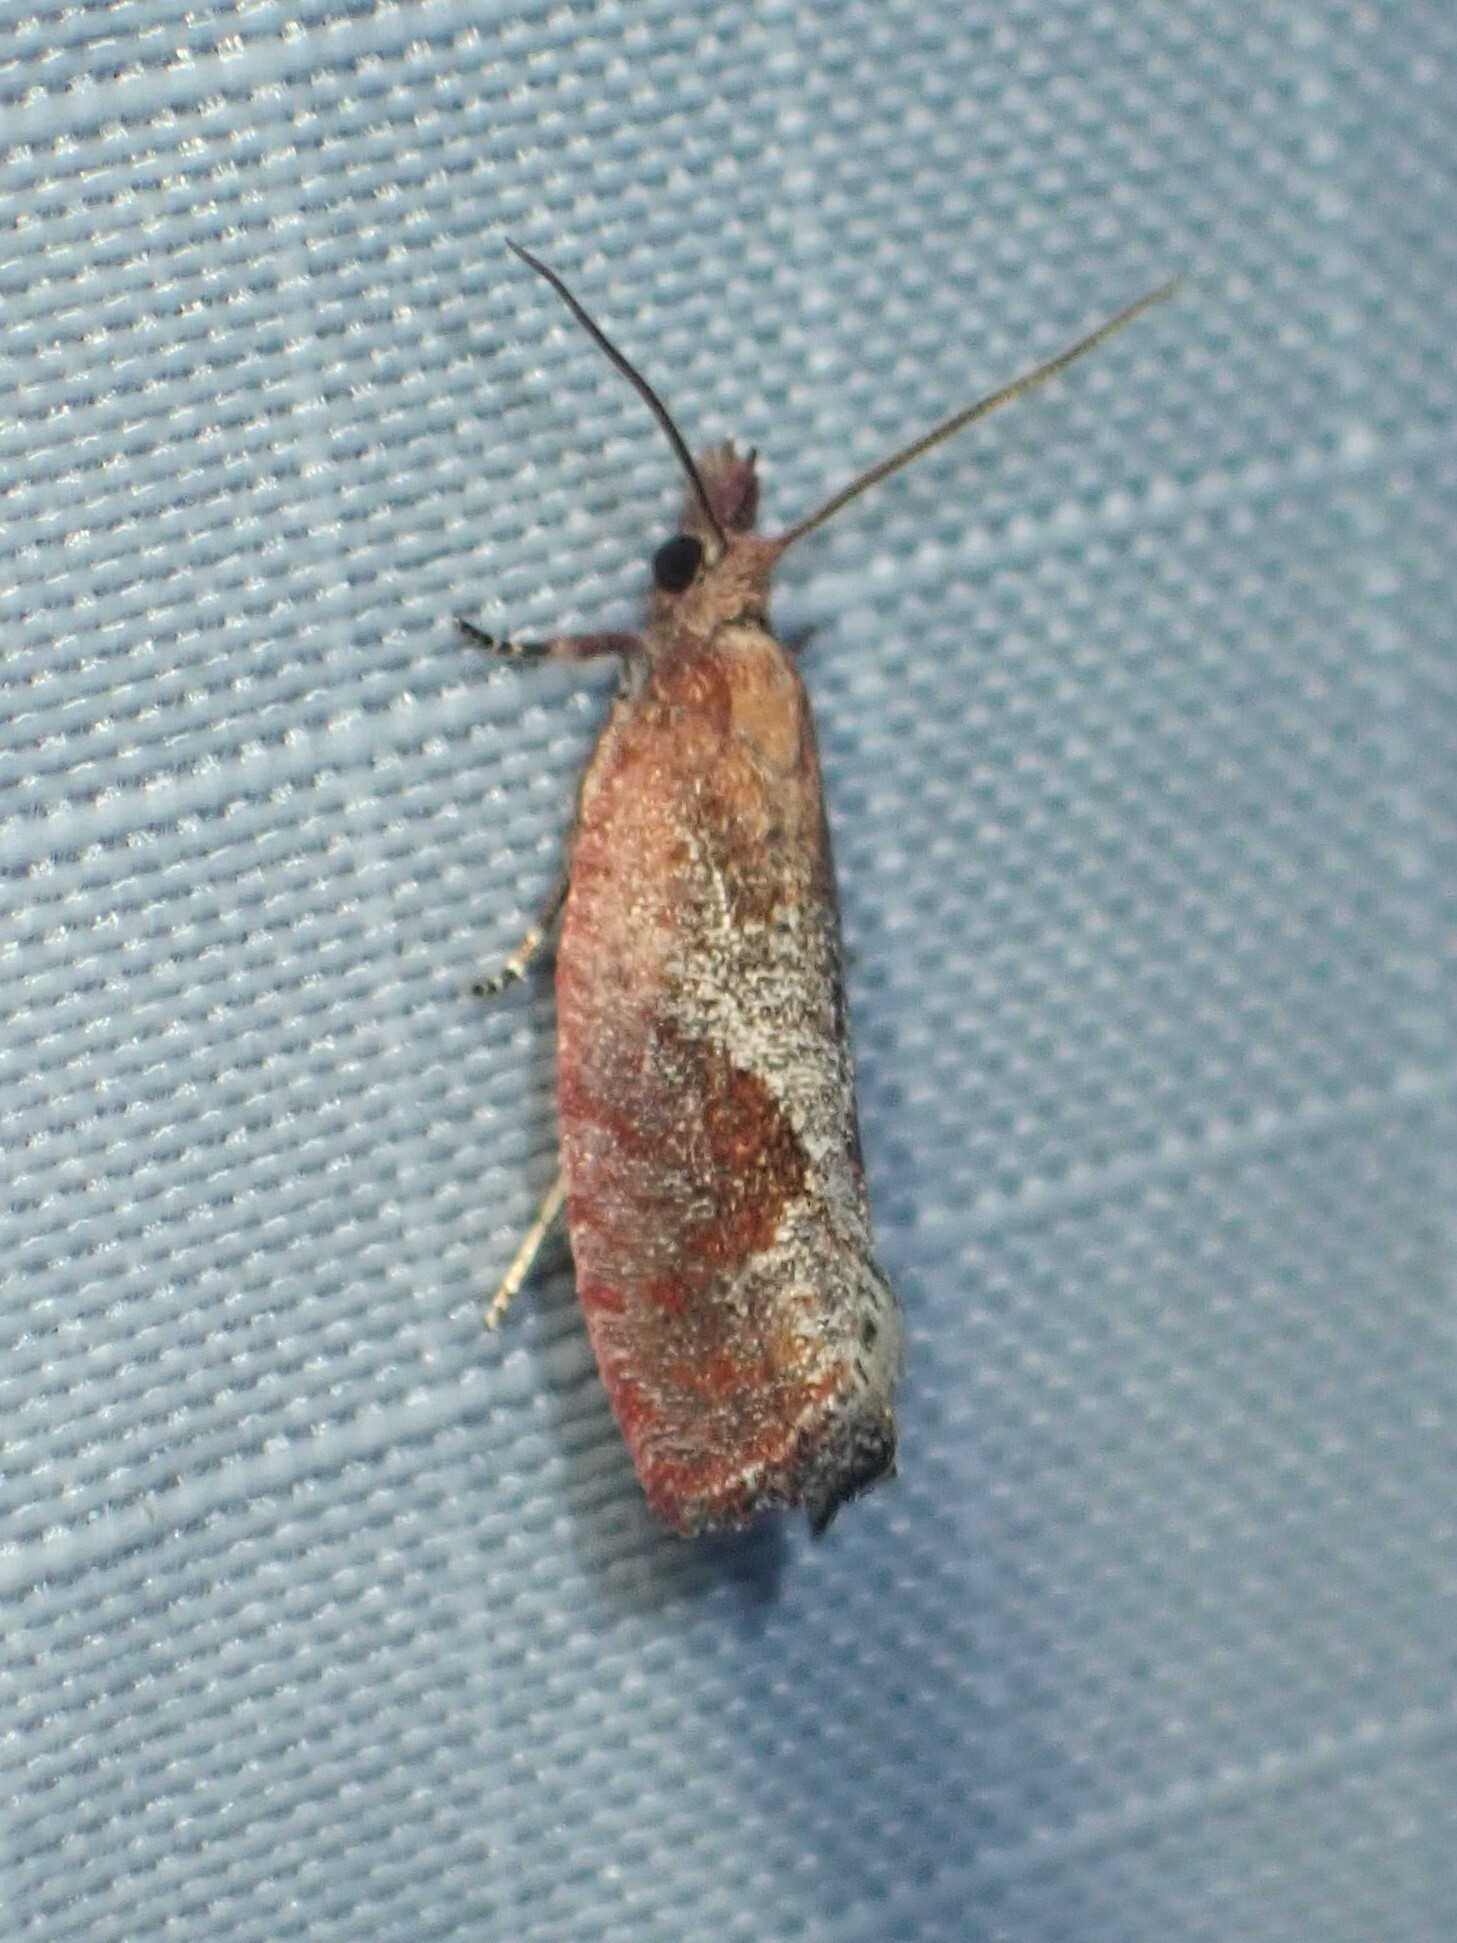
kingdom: Animalia
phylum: Arthropoda
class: Insecta
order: Lepidoptera
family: Tortricidae
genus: Epinotia
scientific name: Epinotia septemberana
